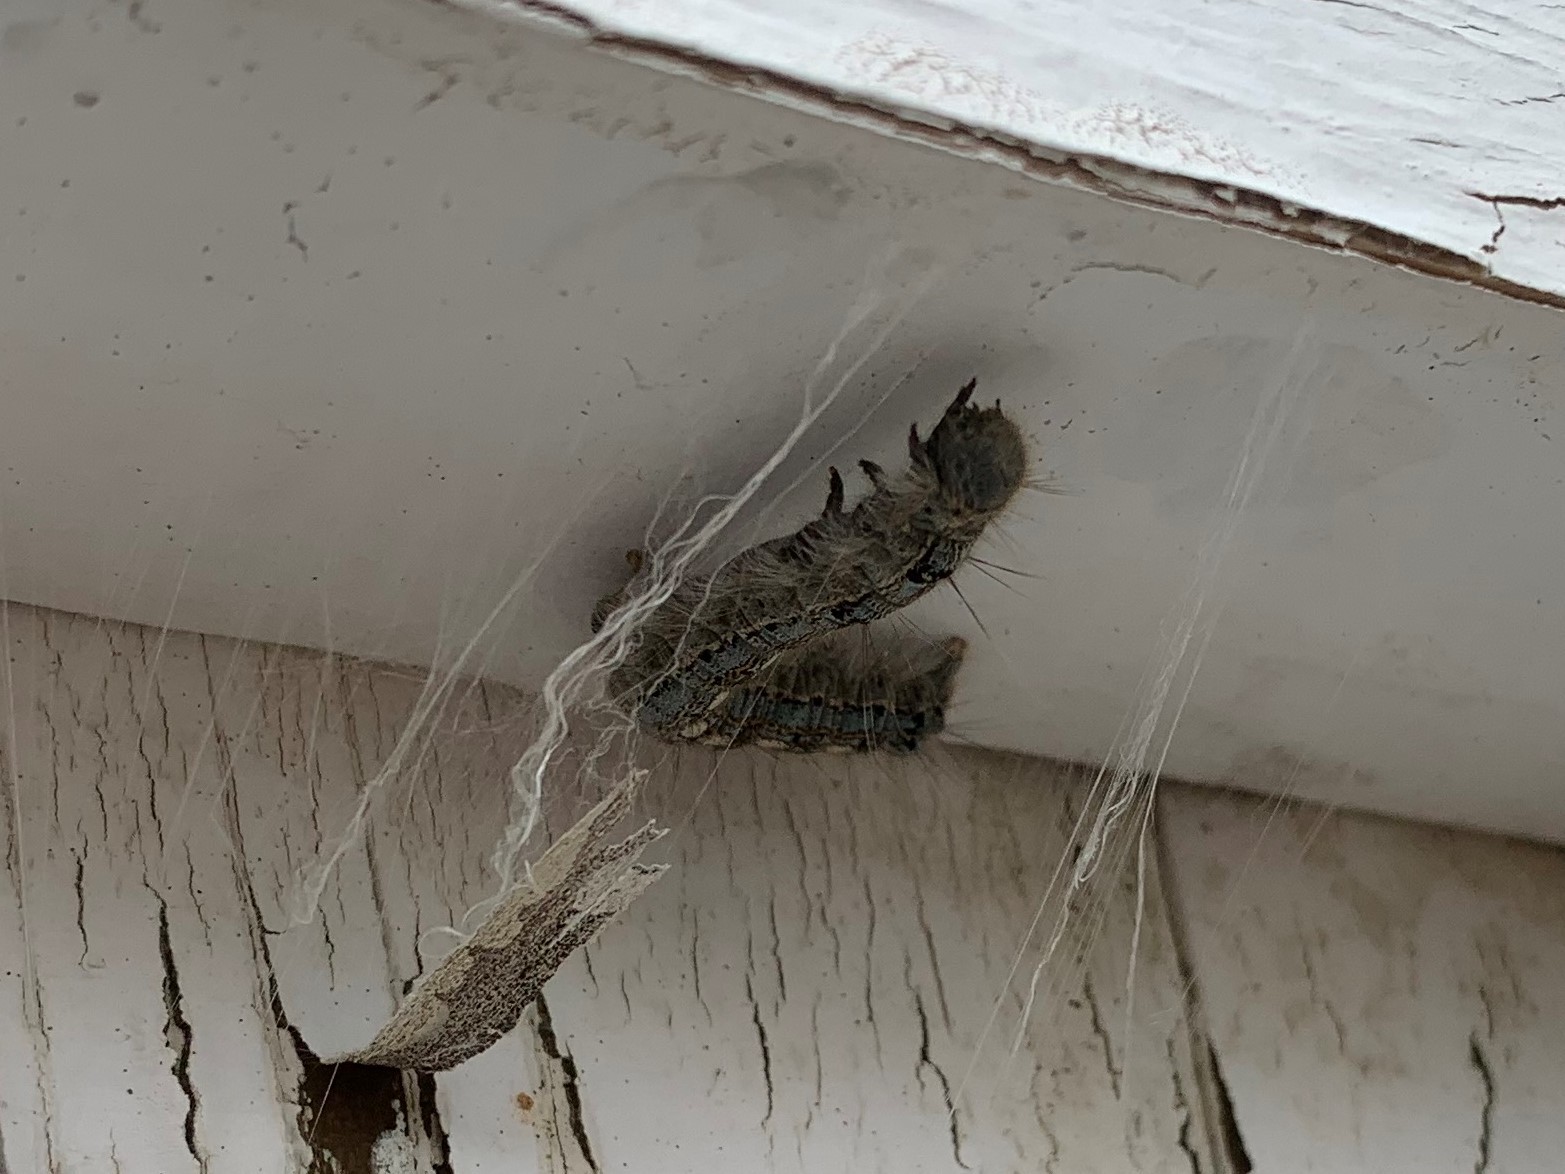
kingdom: Animalia
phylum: Arthropoda
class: Insecta
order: Lepidoptera
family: Lasiocampidae
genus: Malacosoma
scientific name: Malacosoma disstria
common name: Forest tent caterpillar
